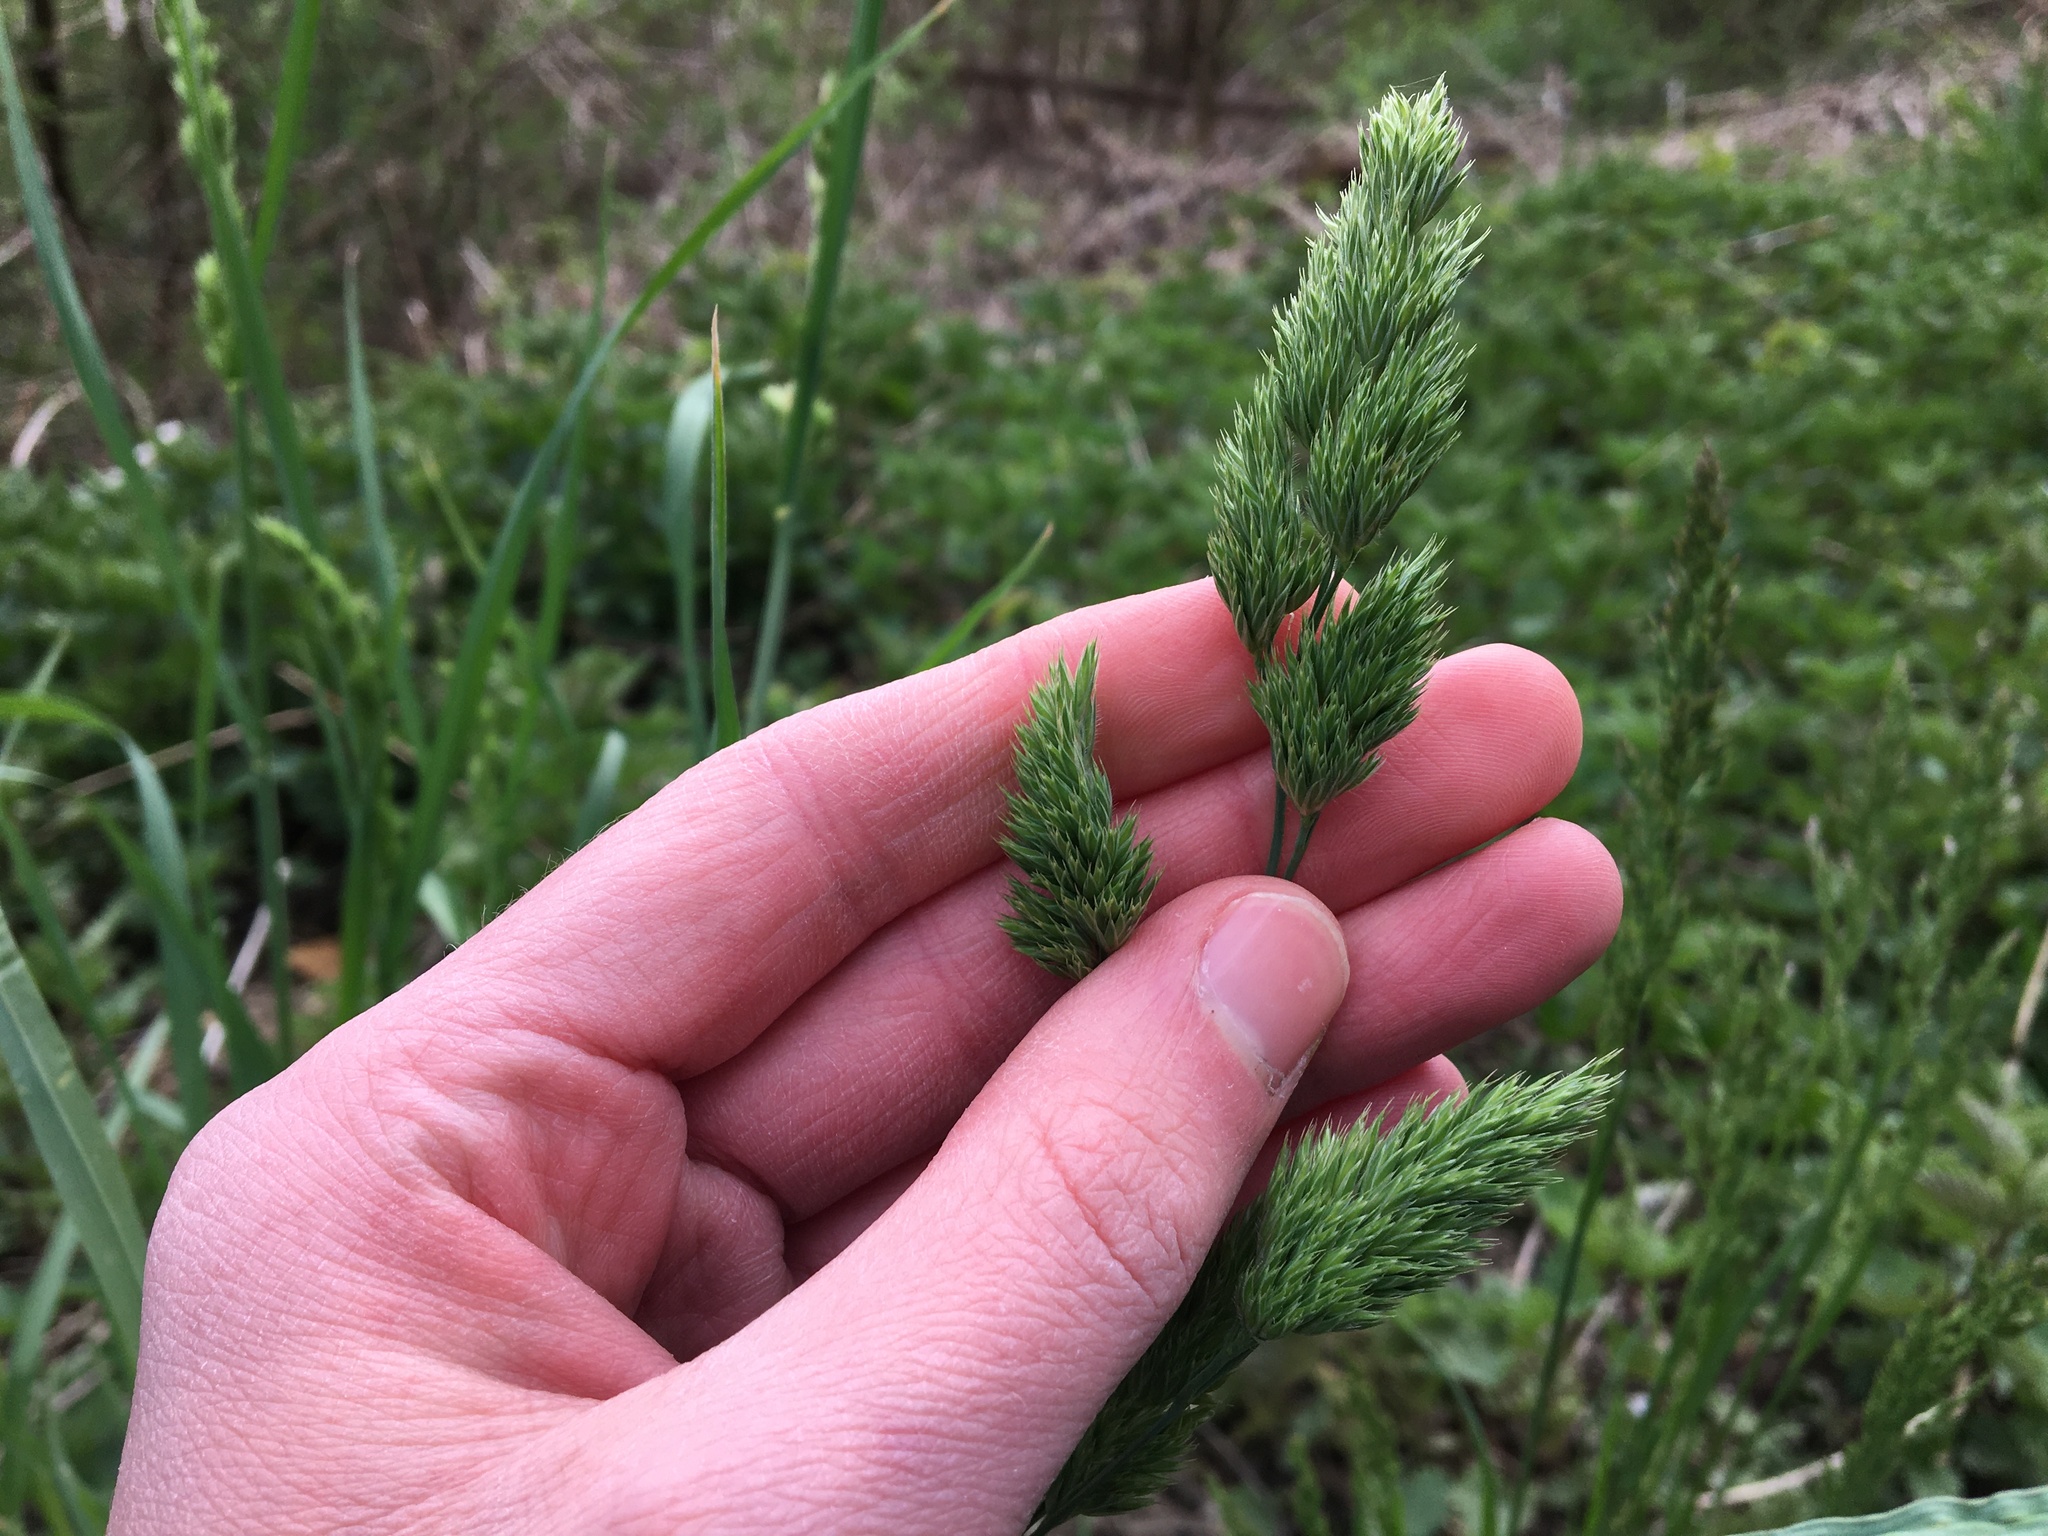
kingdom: Plantae
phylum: Tracheophyta
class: Liliopsida
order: Poales
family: Poaceae
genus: Dactylis
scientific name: Dactylis glomerata
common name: Orchardgrass
